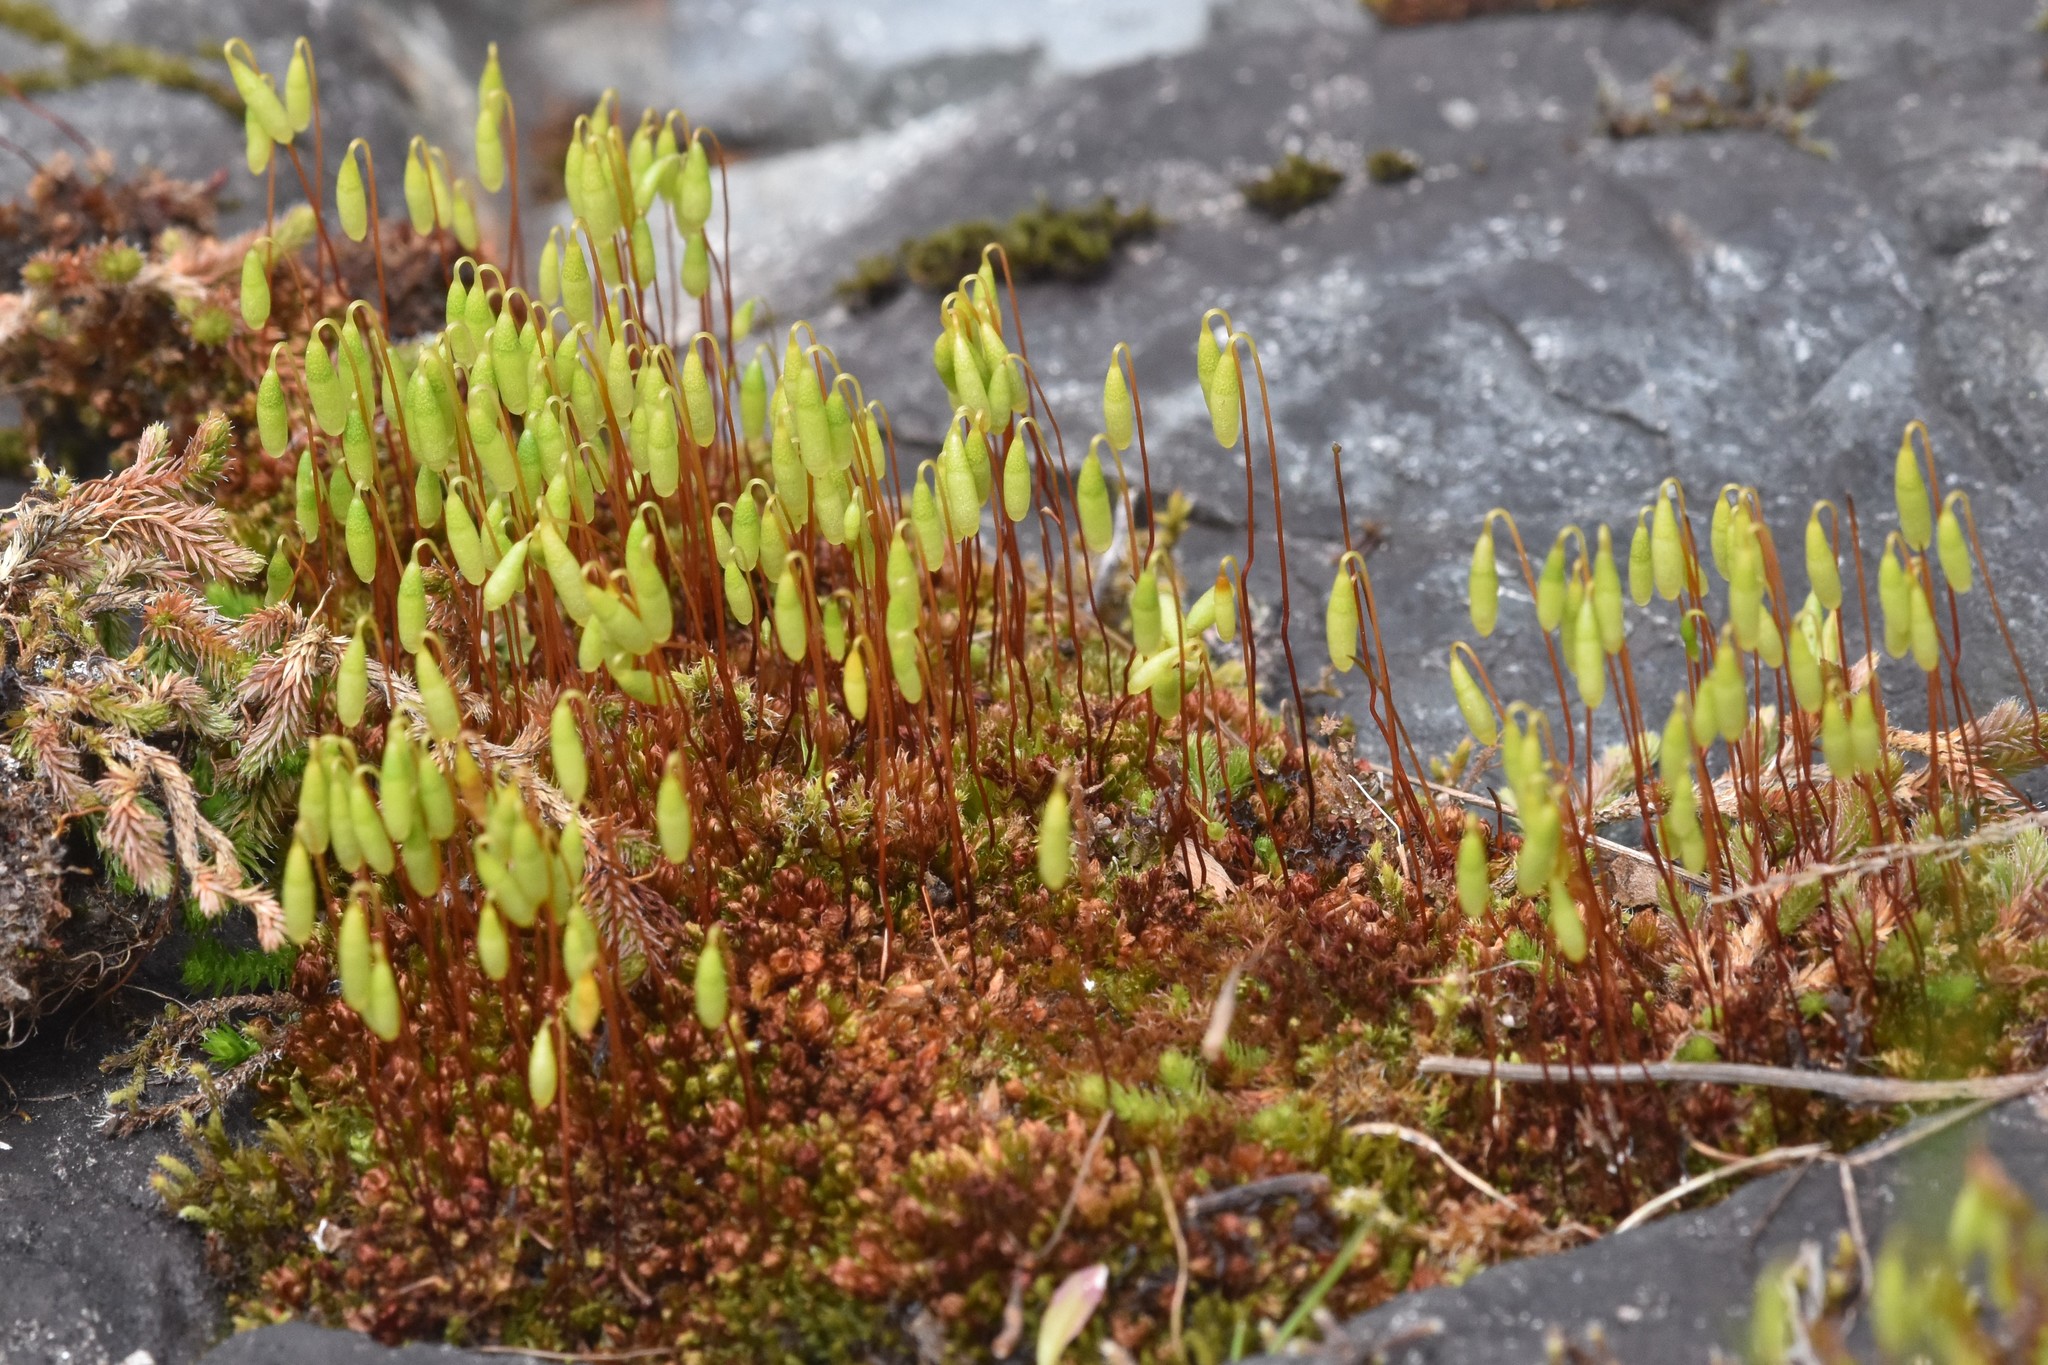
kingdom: Plantae
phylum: Bryophyta
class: Bryopsida
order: Bryales
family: Bryaceae
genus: Rosulabryum
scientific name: Rosulabryum capillare
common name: Capillary thread-moss
